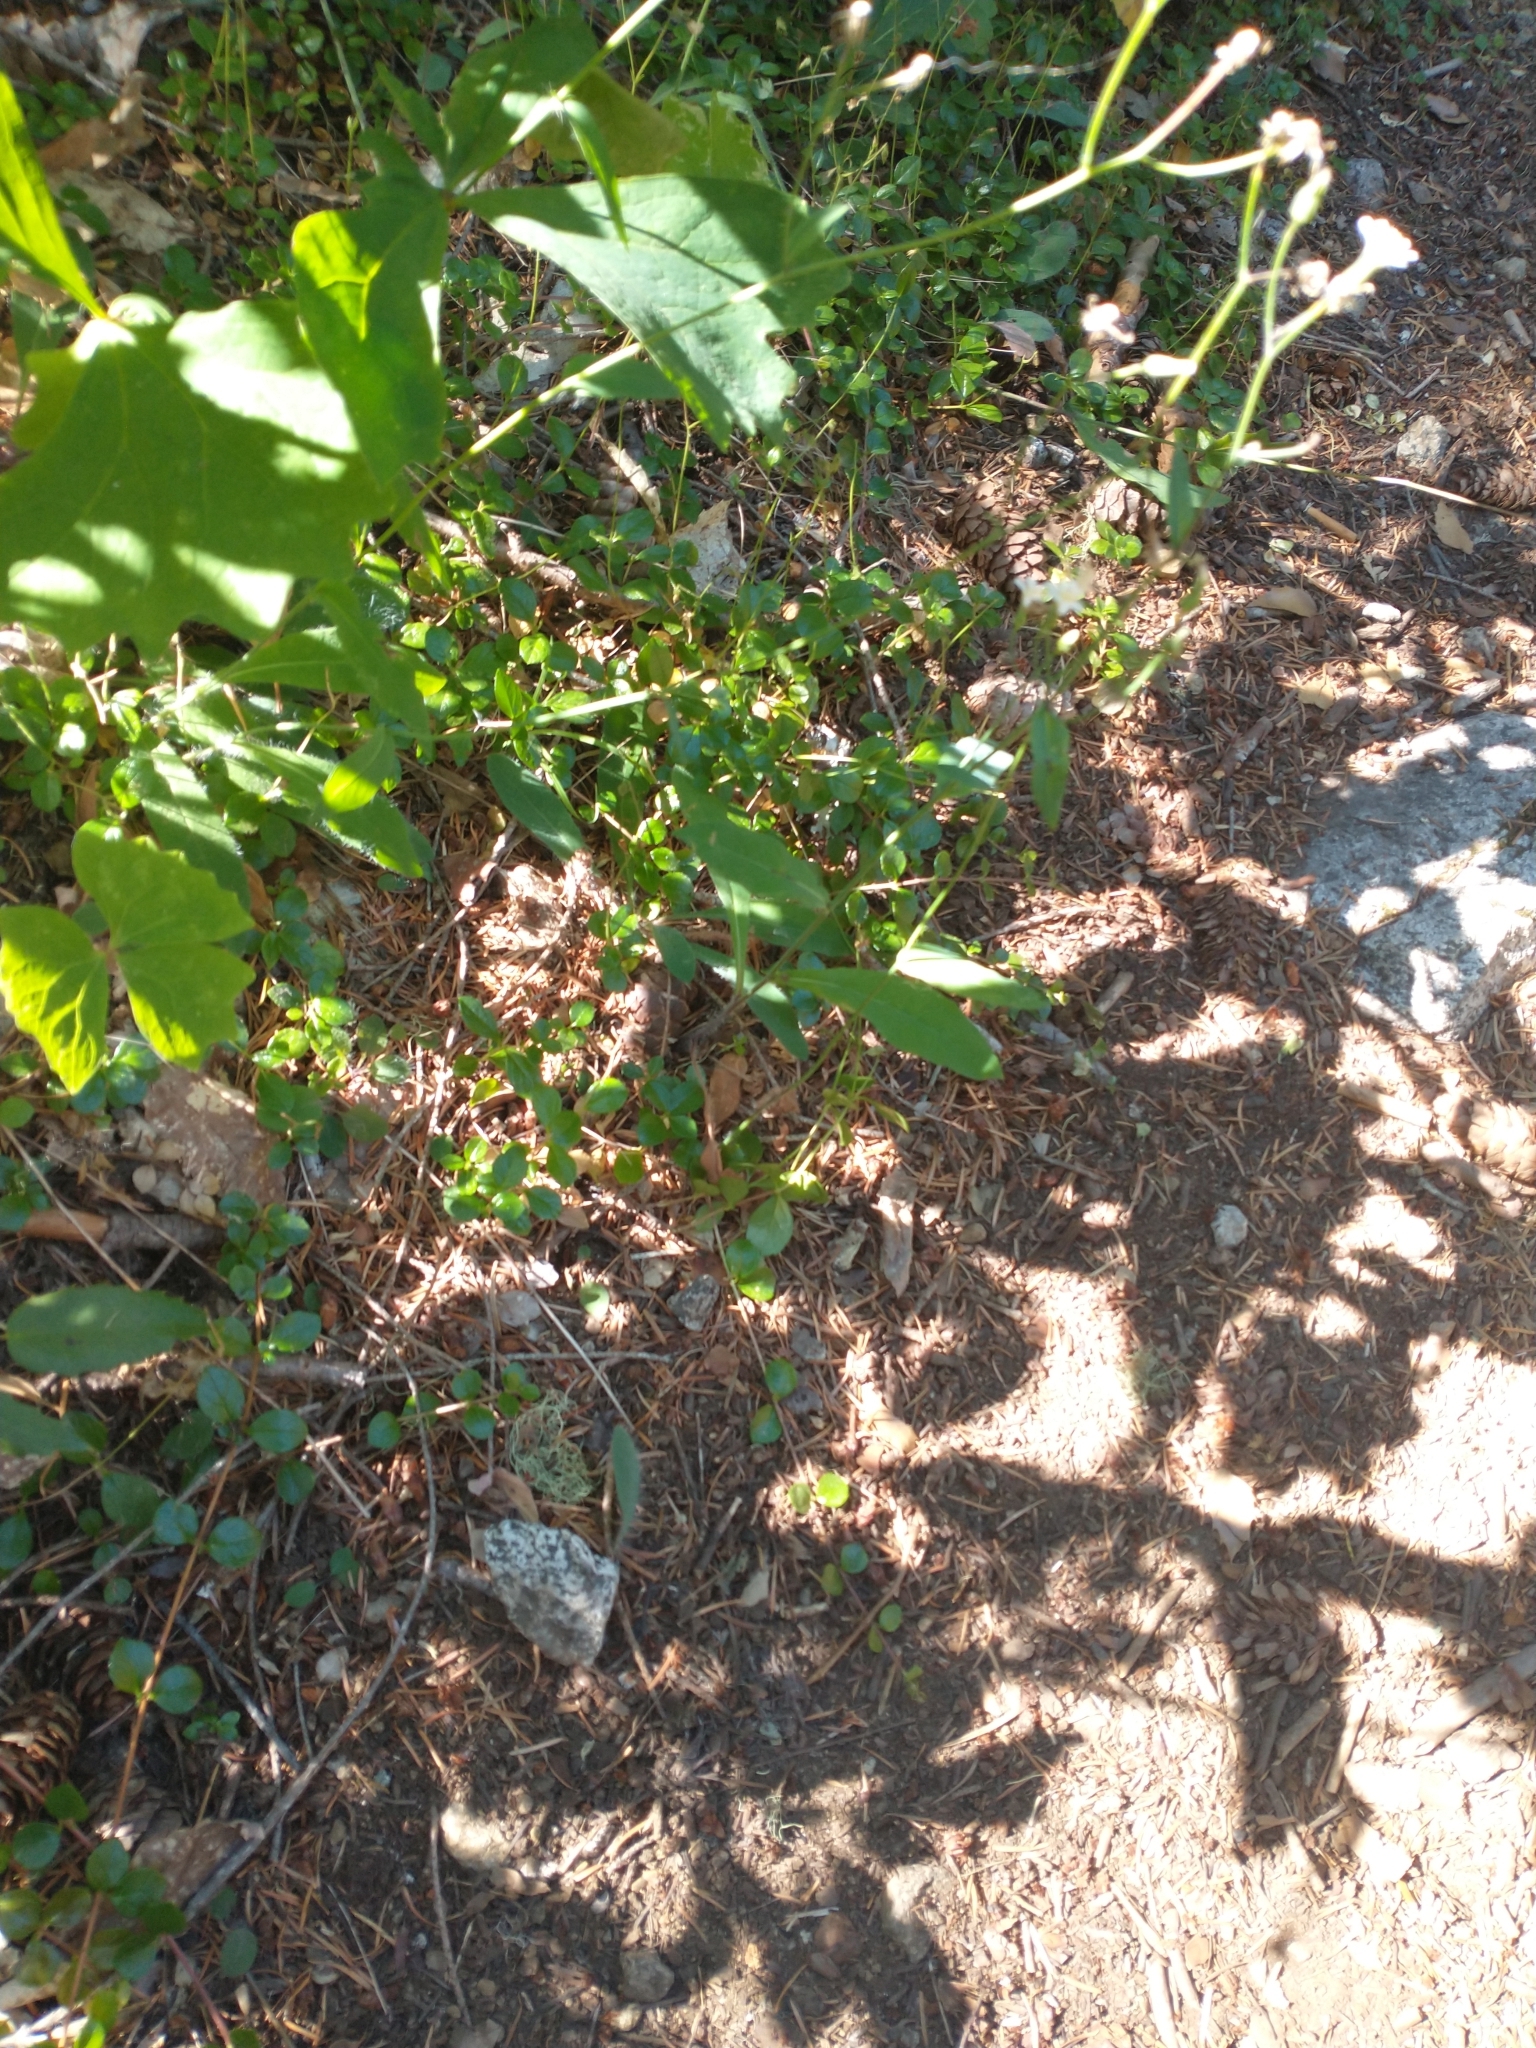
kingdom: Plantae
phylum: Tracheophyta
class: Magnoliopsida
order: Asterales
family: Asteraceae
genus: Hieracium
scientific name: Hieracium albiflorum
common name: White hawkweed
